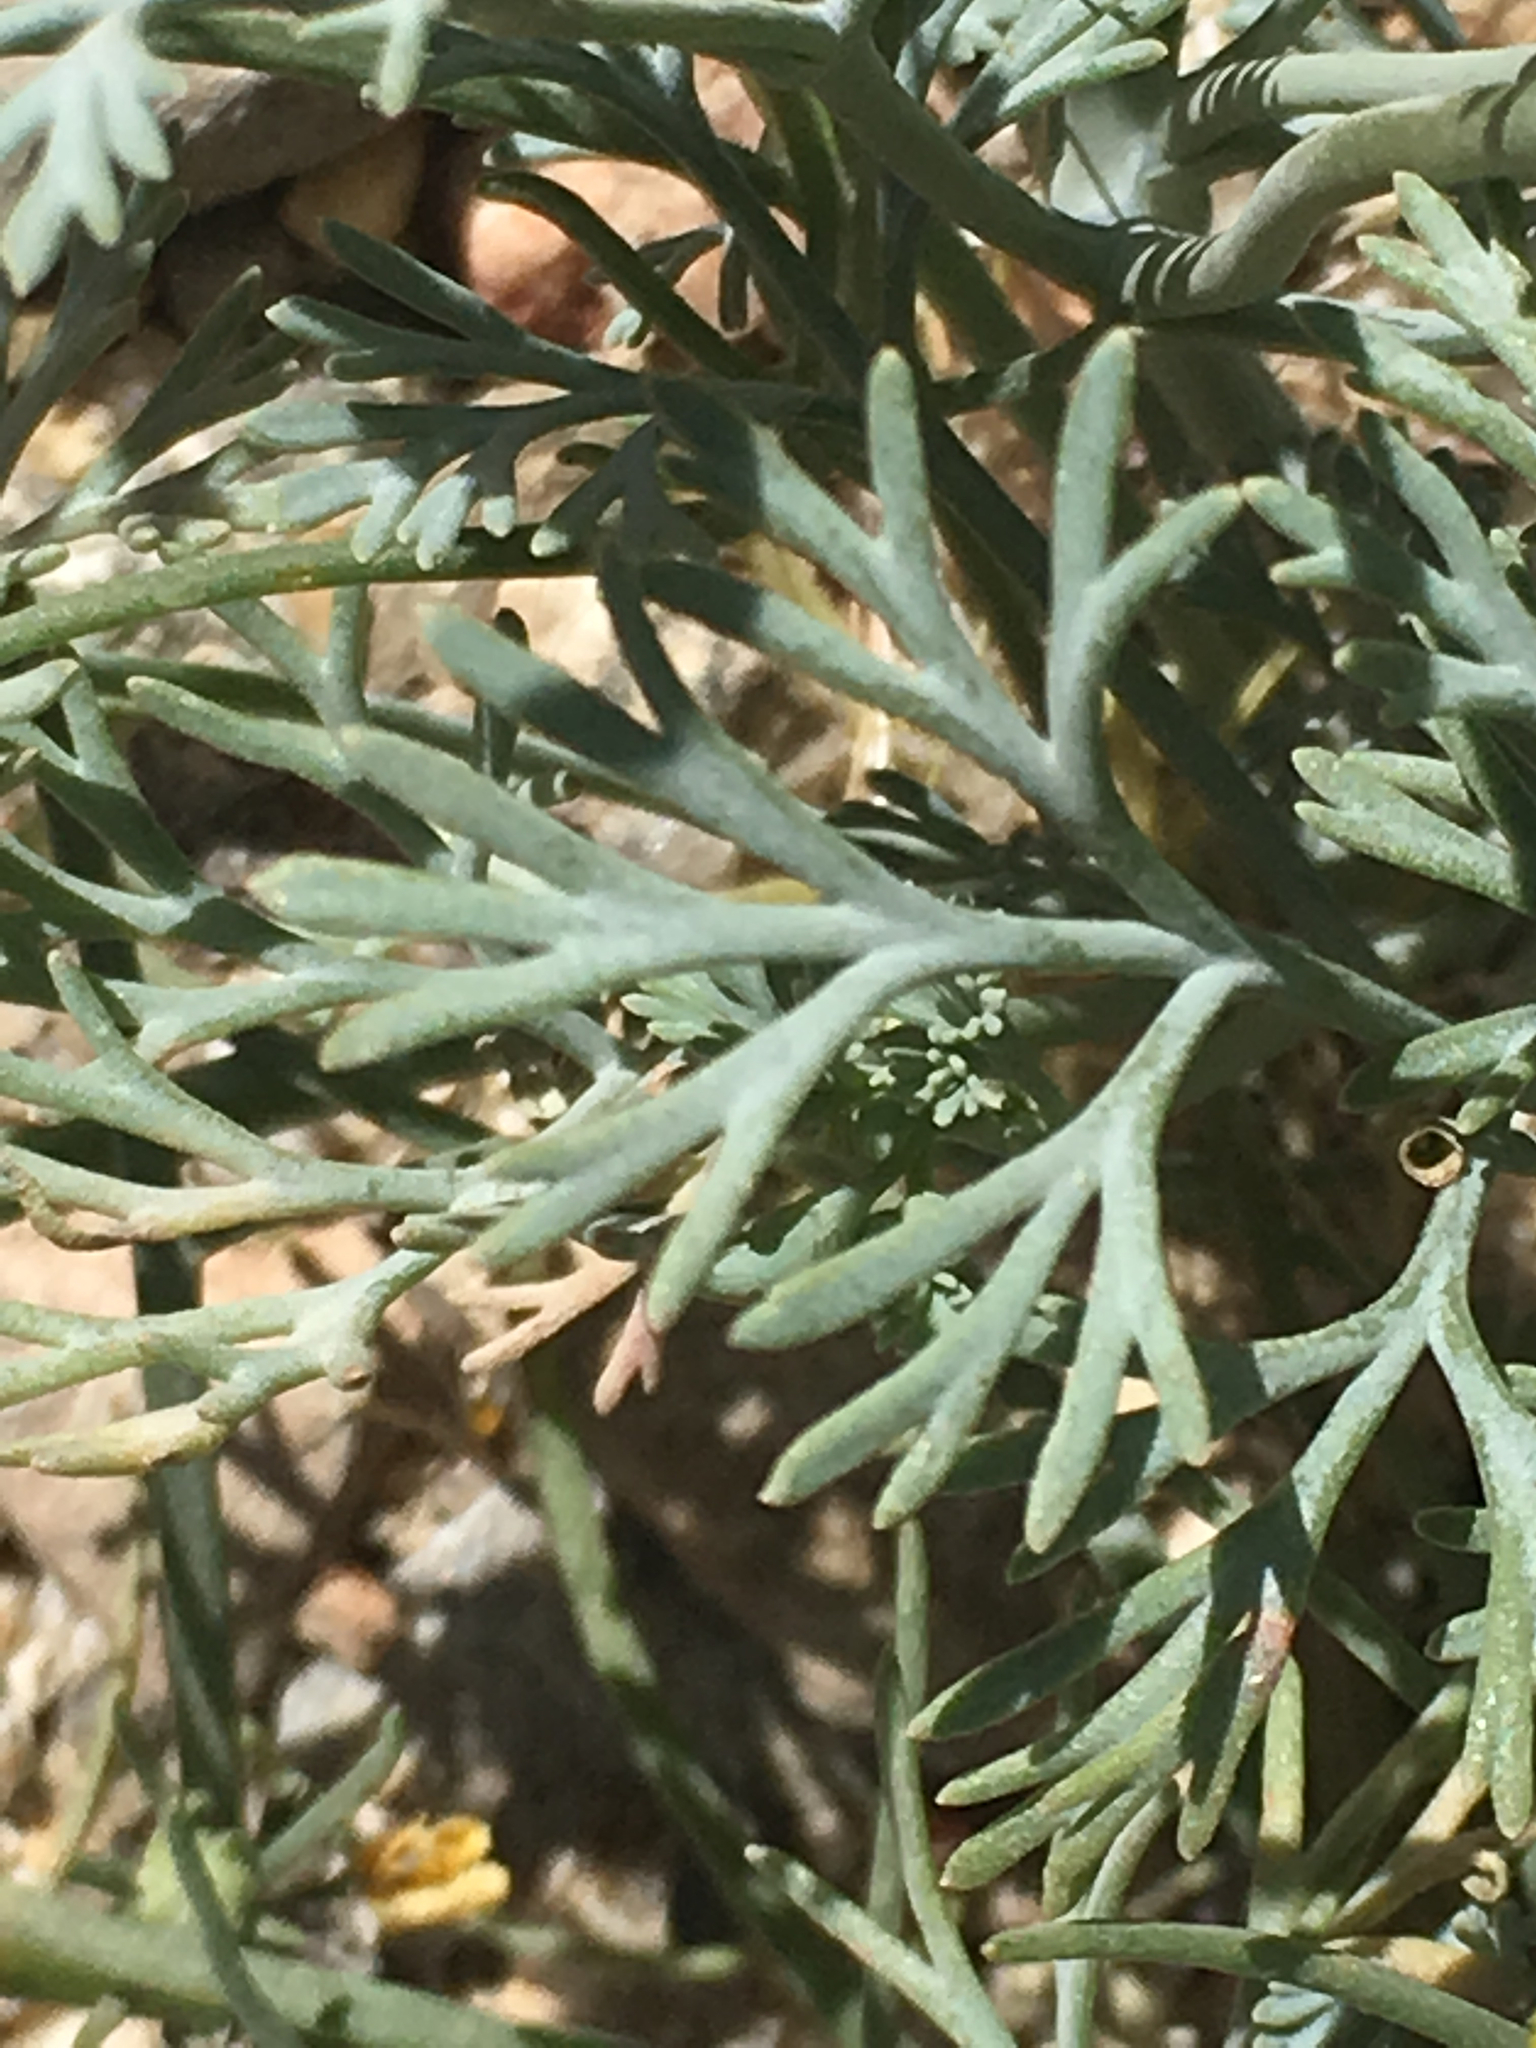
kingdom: Plantae
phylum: Tracheophyta
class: Magnoliopsida
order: Ranunculales
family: Papaveraceae
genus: Eschscholzia
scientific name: Eschscholzia minutiflora
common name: Small-flower california-poppy
